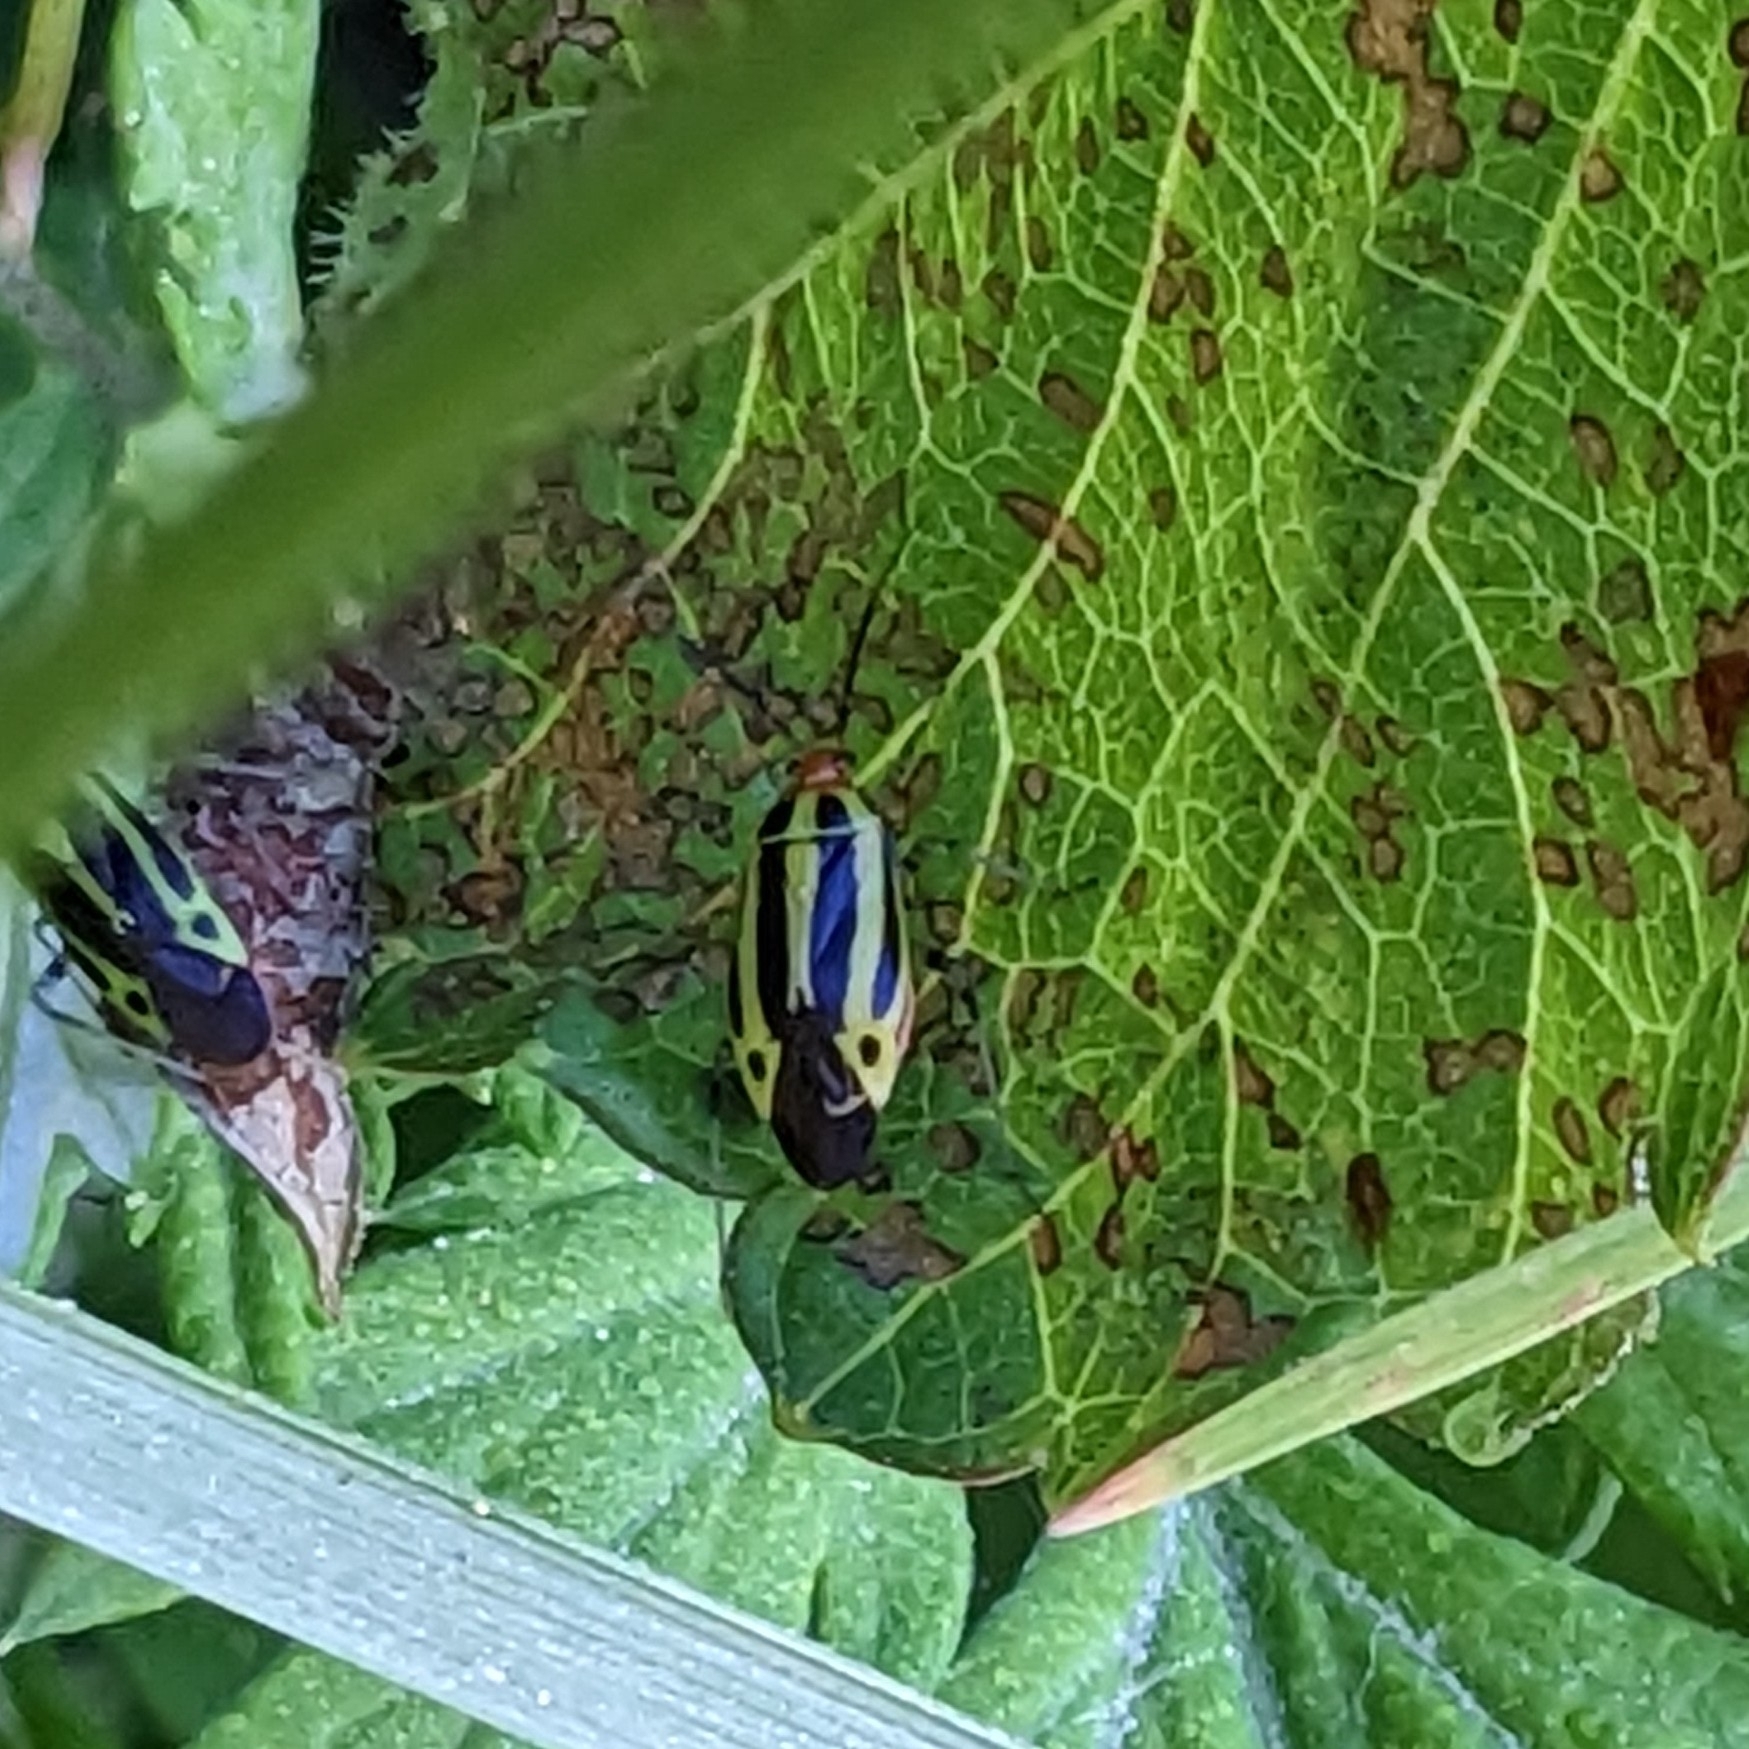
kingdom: Animalia
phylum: Arthropoda
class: Insecta
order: Hemiptera
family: Miridae
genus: Poecilocapsus
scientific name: Poecilocapsus lineatus
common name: Four-lined plant bug
